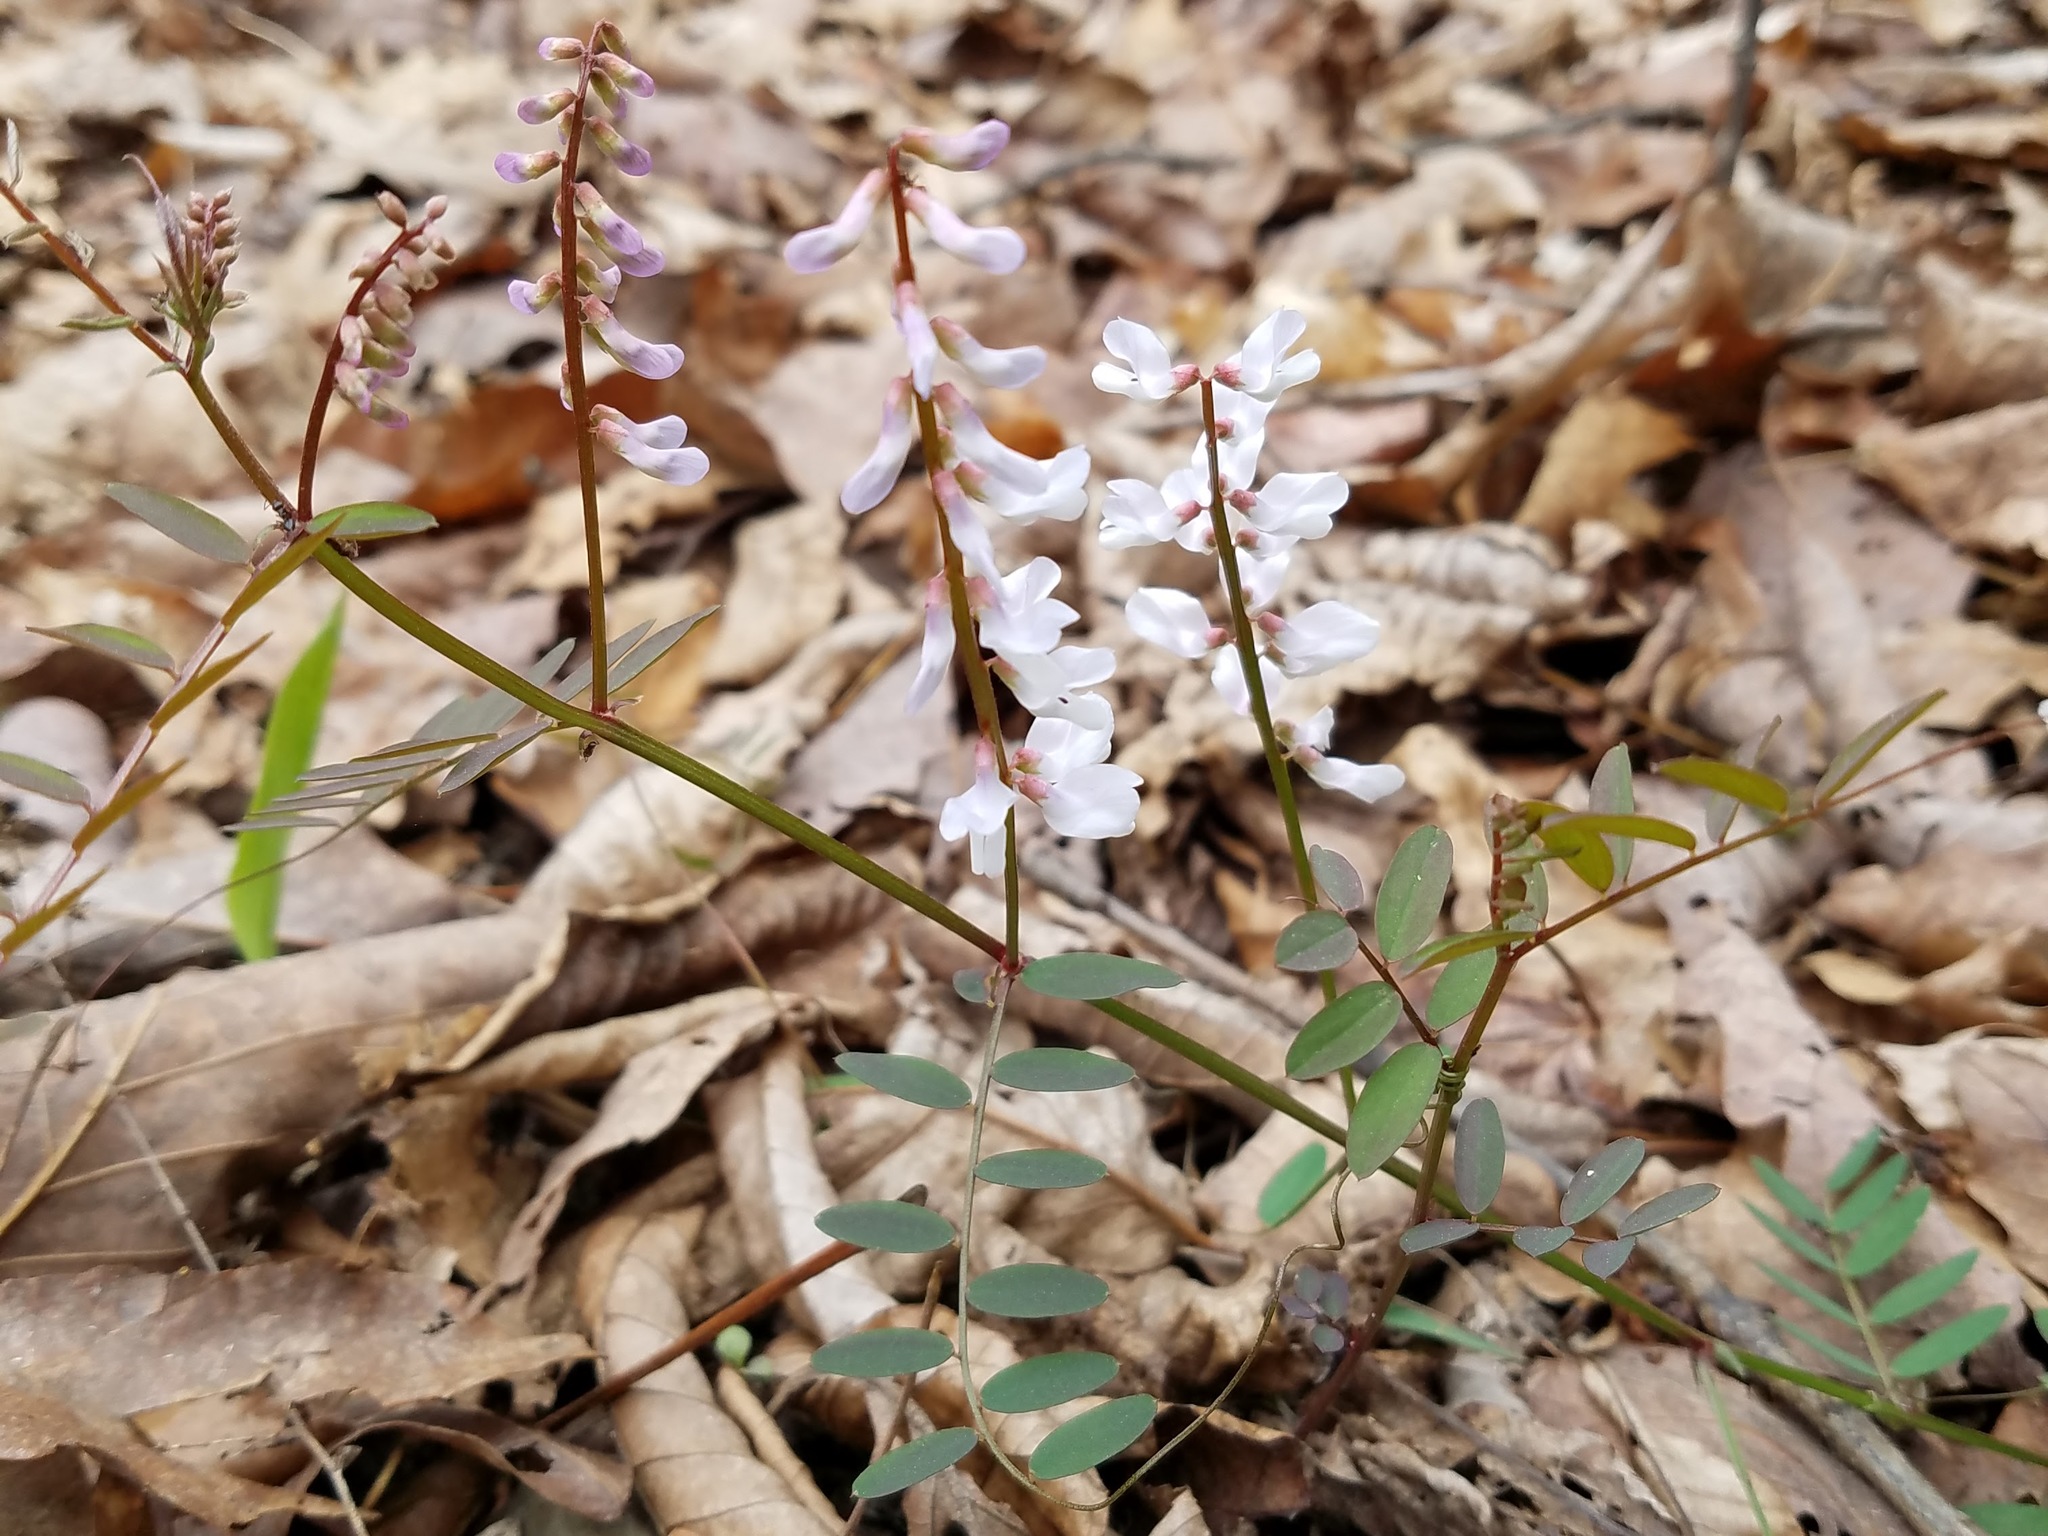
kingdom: Plantae
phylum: Tracheophyta
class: Magnoliopsida
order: Fabales
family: Fabaceae
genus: Vicia
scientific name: Vicia caroliniana
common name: Carolina vetch
